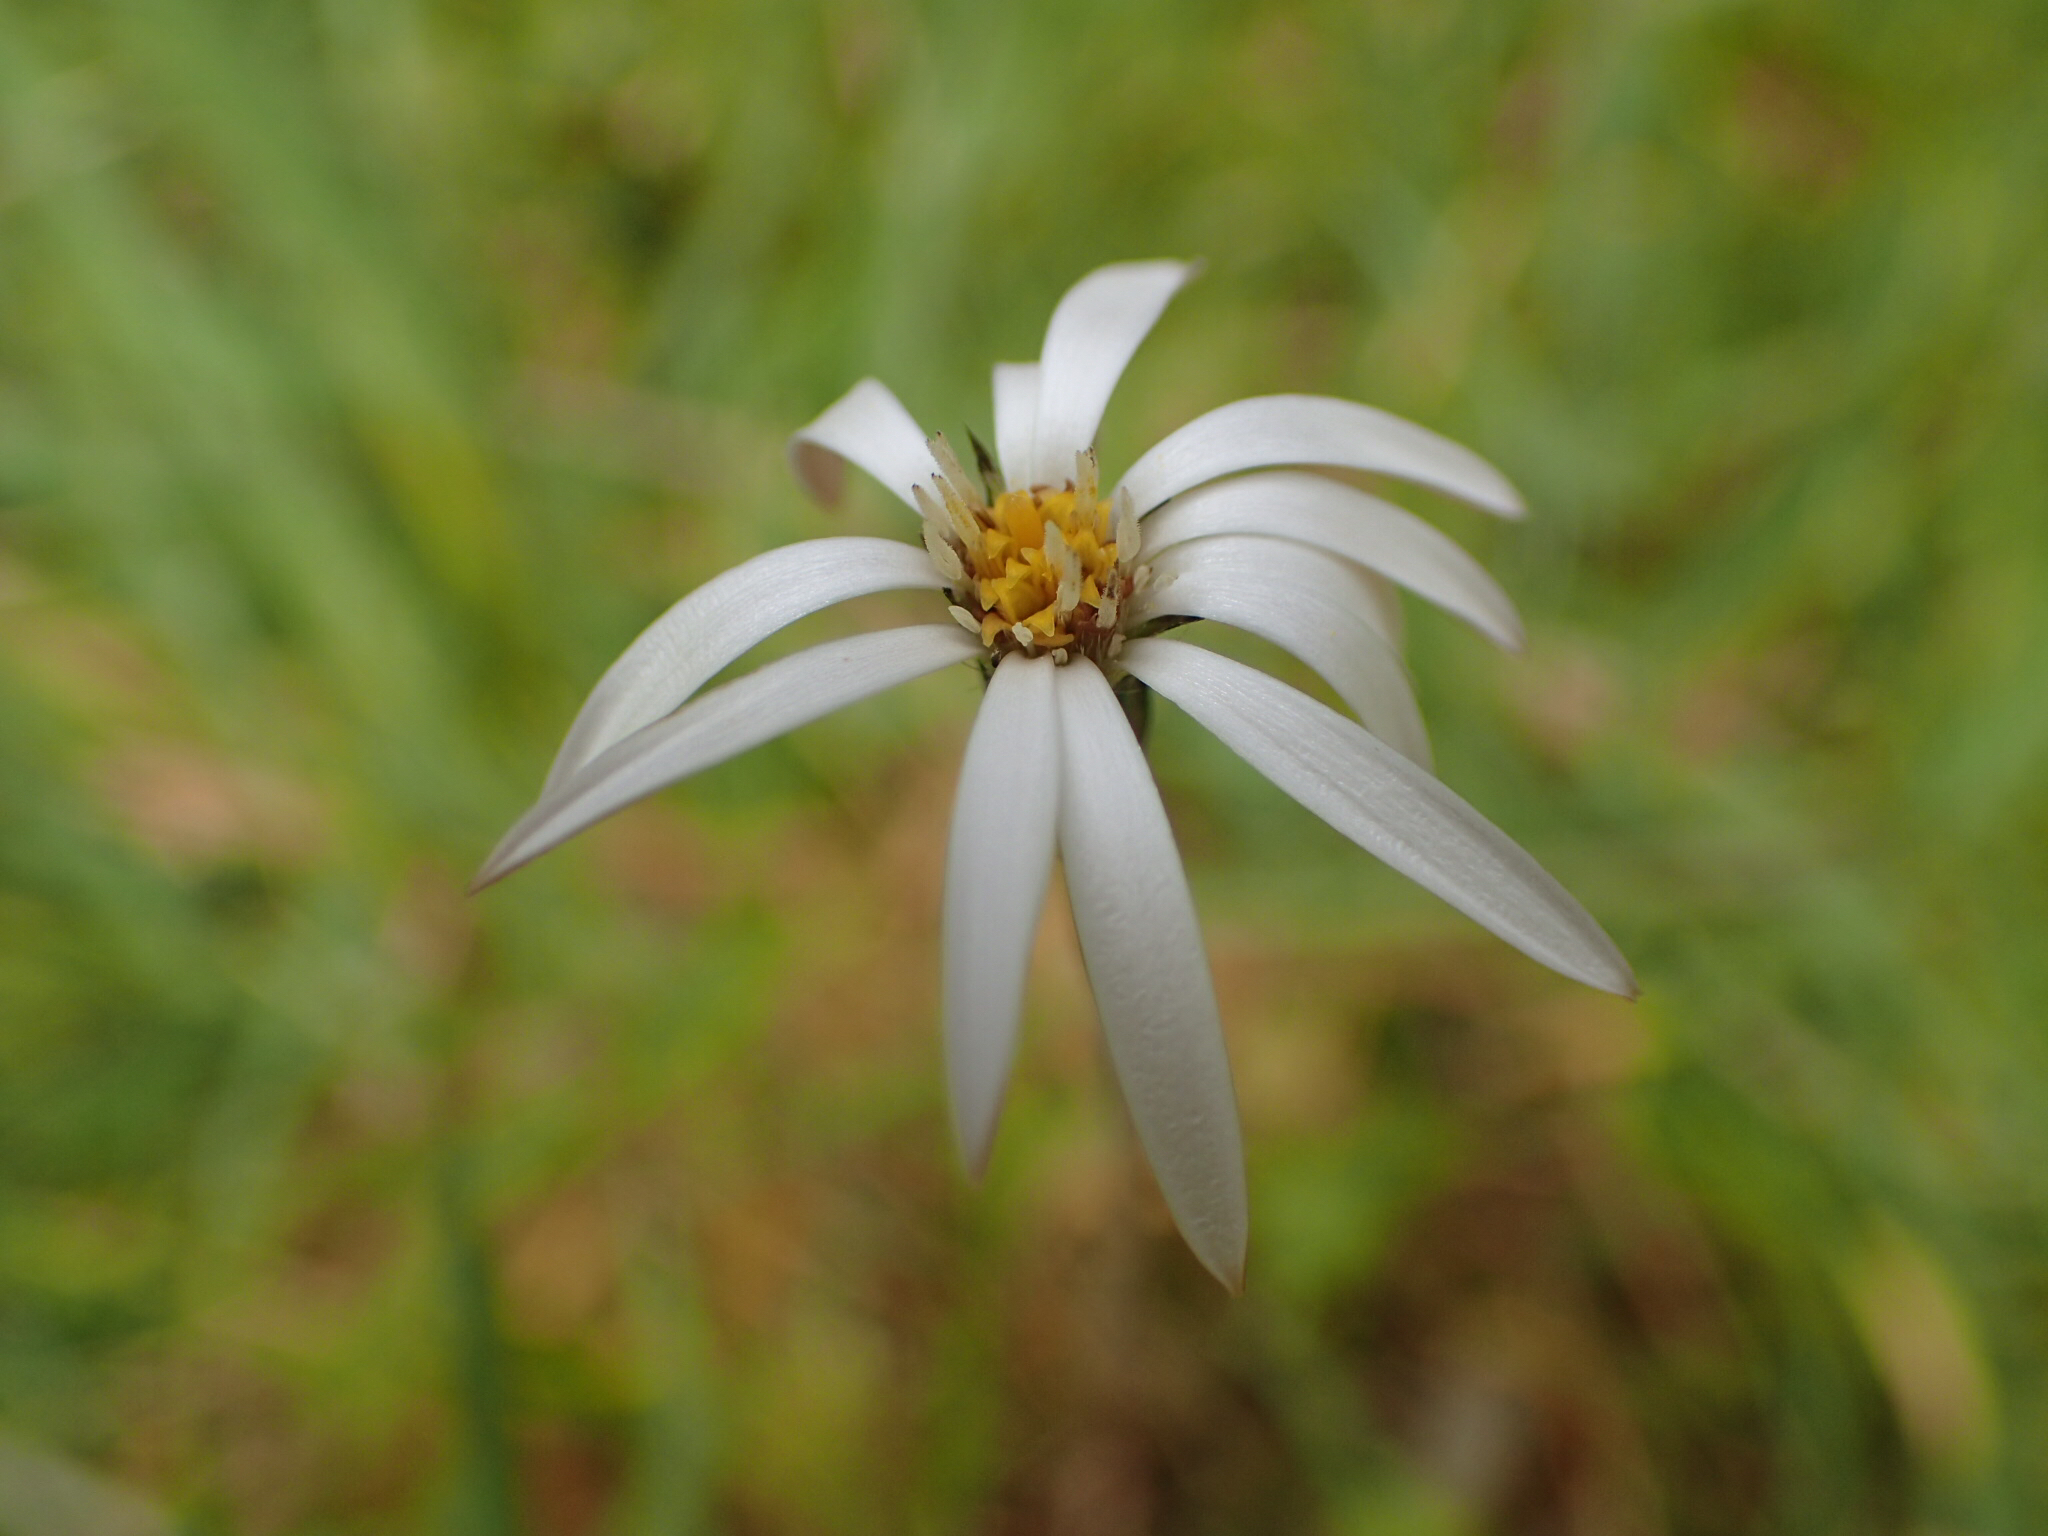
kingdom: Plantae
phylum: Tracheophyta
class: Magnoliopsida
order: Asterales
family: Asteraceae
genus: Celmisia
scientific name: Celmisia gracilenta
